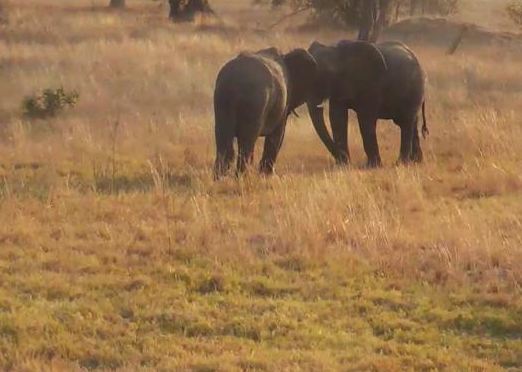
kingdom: Animalia
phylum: Chordata
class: Mammalia
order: Proboscidea
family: Elephantidae
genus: Loxodonta
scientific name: Loxodonta africana
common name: African elephant
